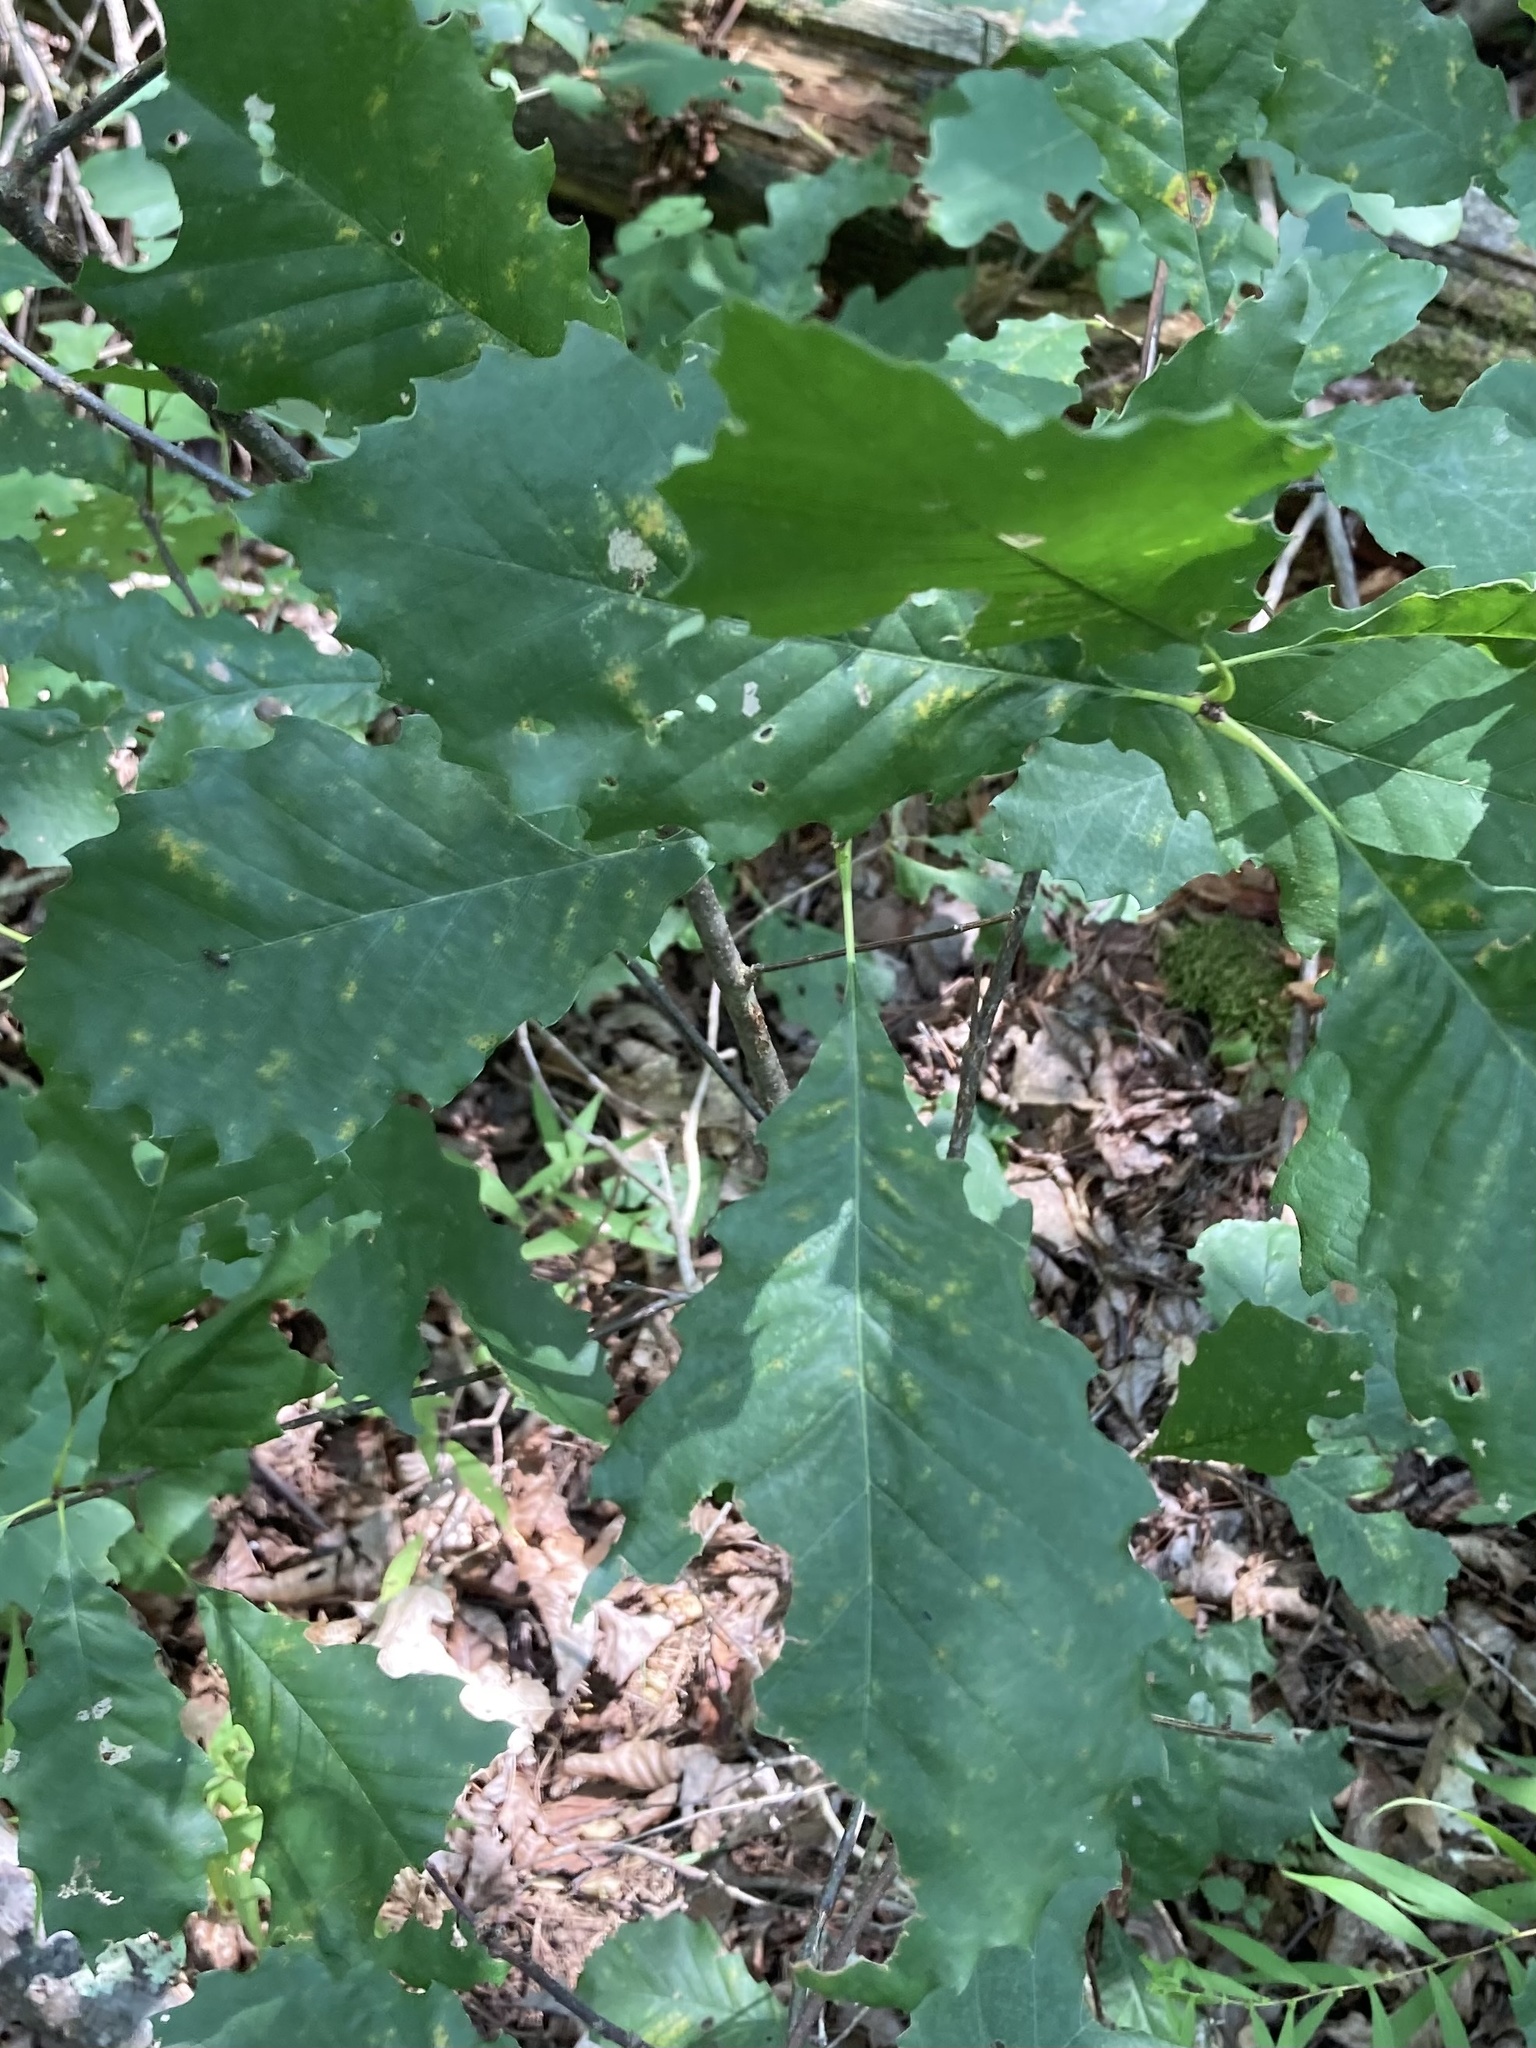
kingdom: Plantae
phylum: Tracheophyta
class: Magnoliopsida
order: Fagales
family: Fagaceae
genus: Quercus
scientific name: Quercus muehlenbergii
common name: Chinkapin oak
